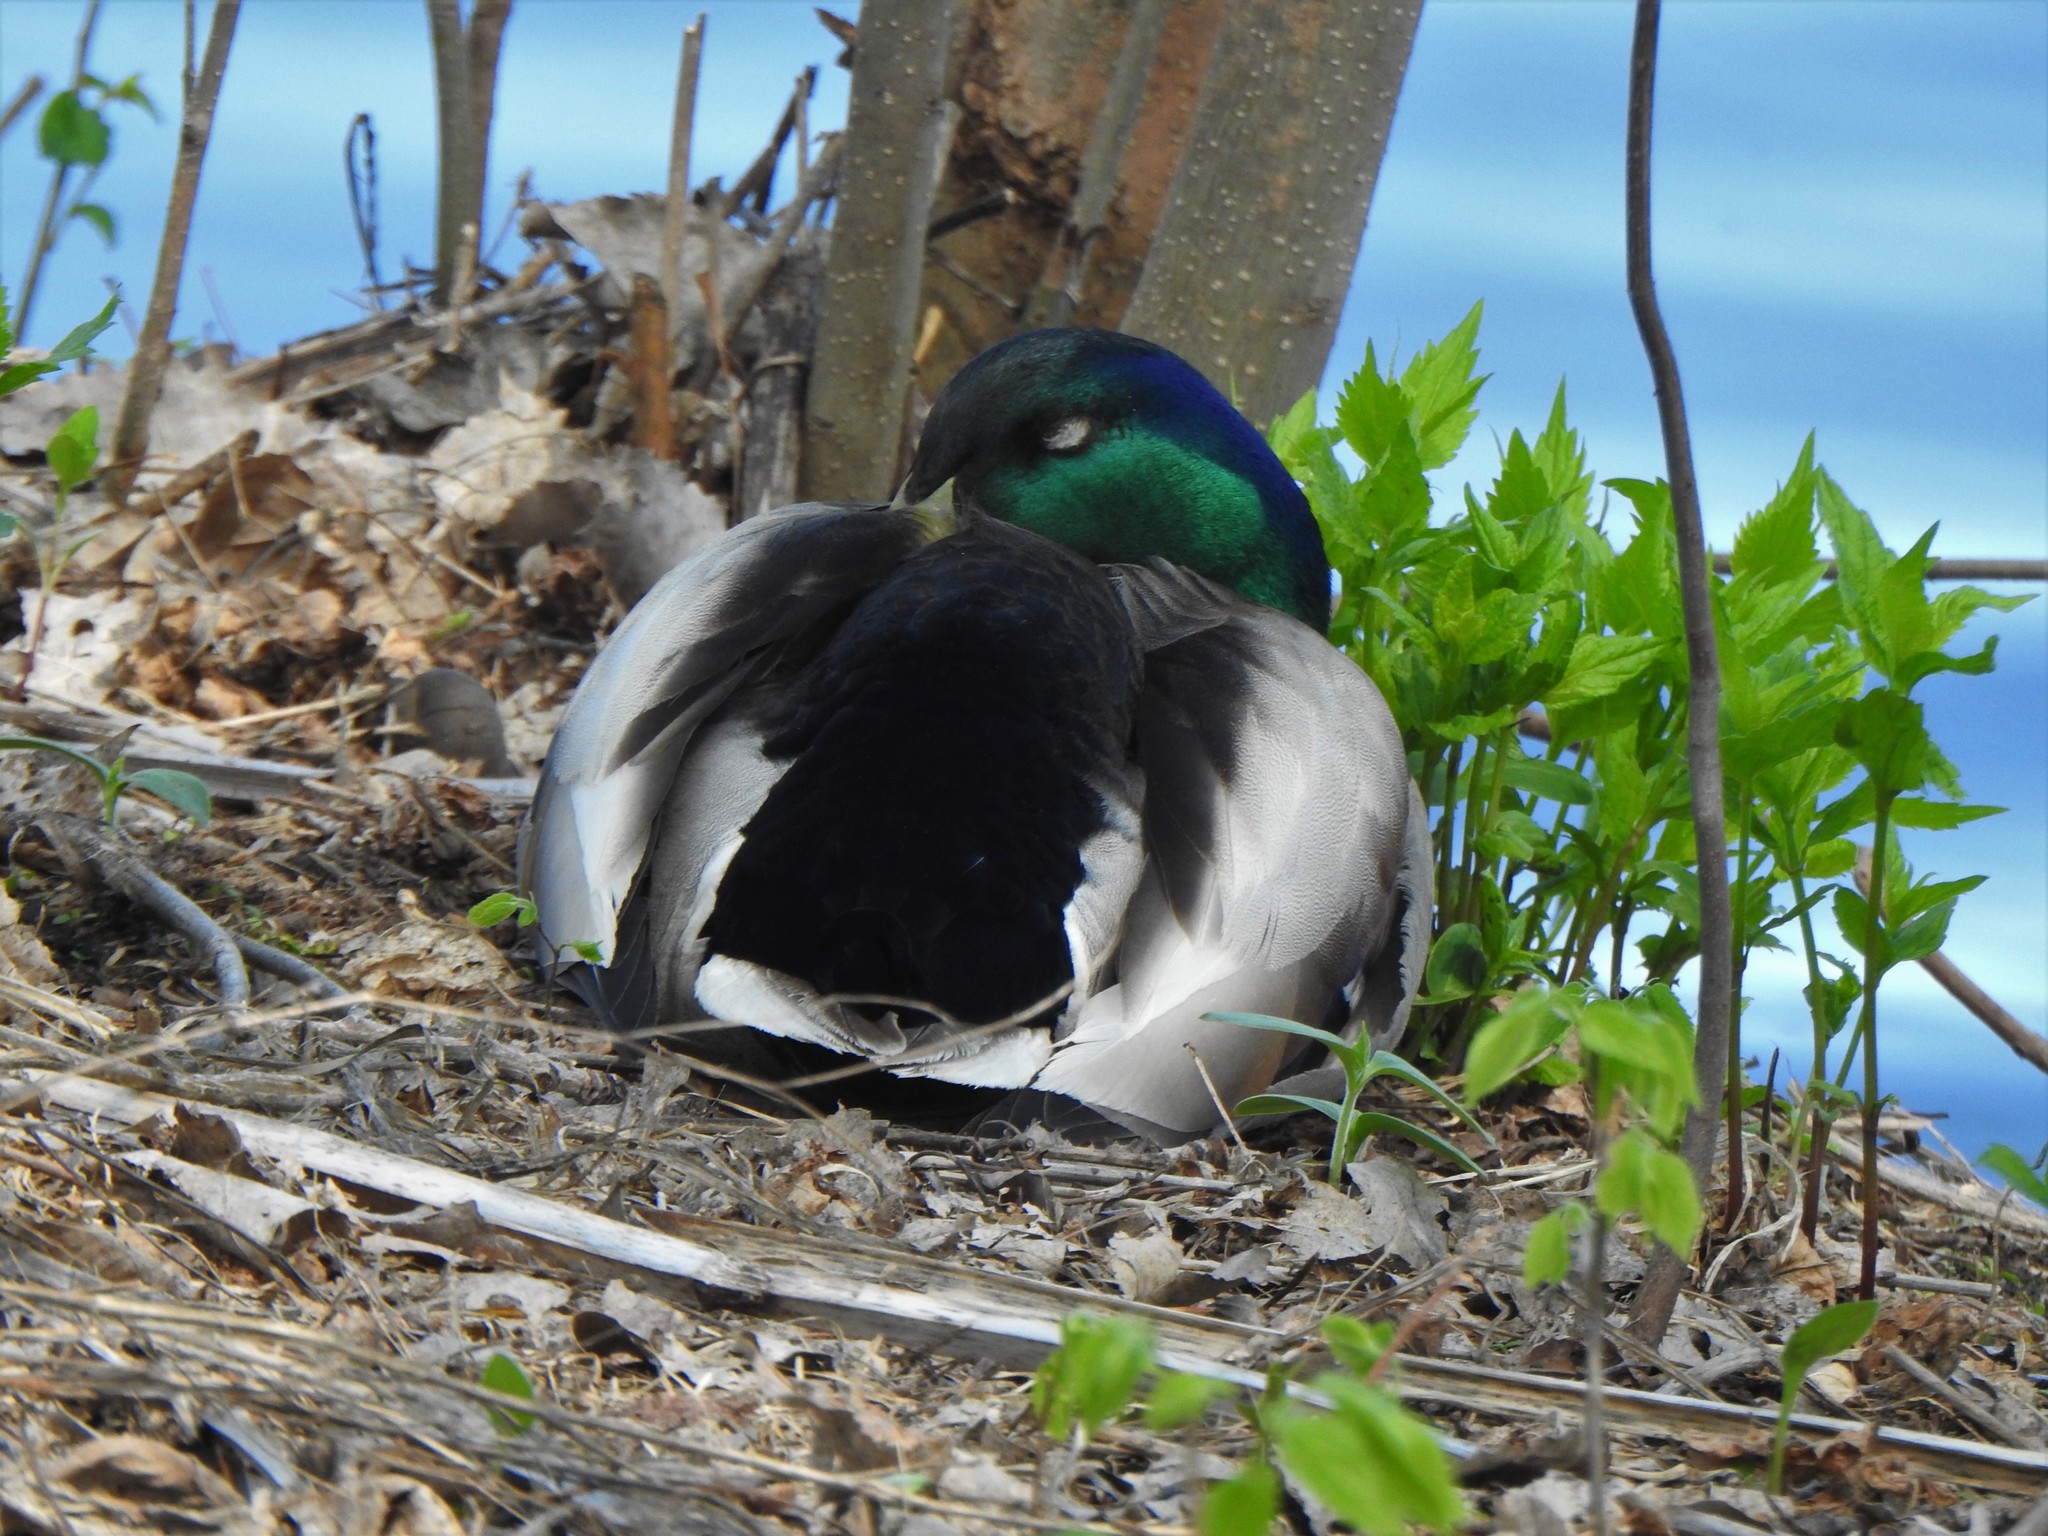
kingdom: Animalia
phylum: Chordata
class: Aves
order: Anseriformes
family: Anatidae
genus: Anas
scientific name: Anas platyrhynchos
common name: Mallard
